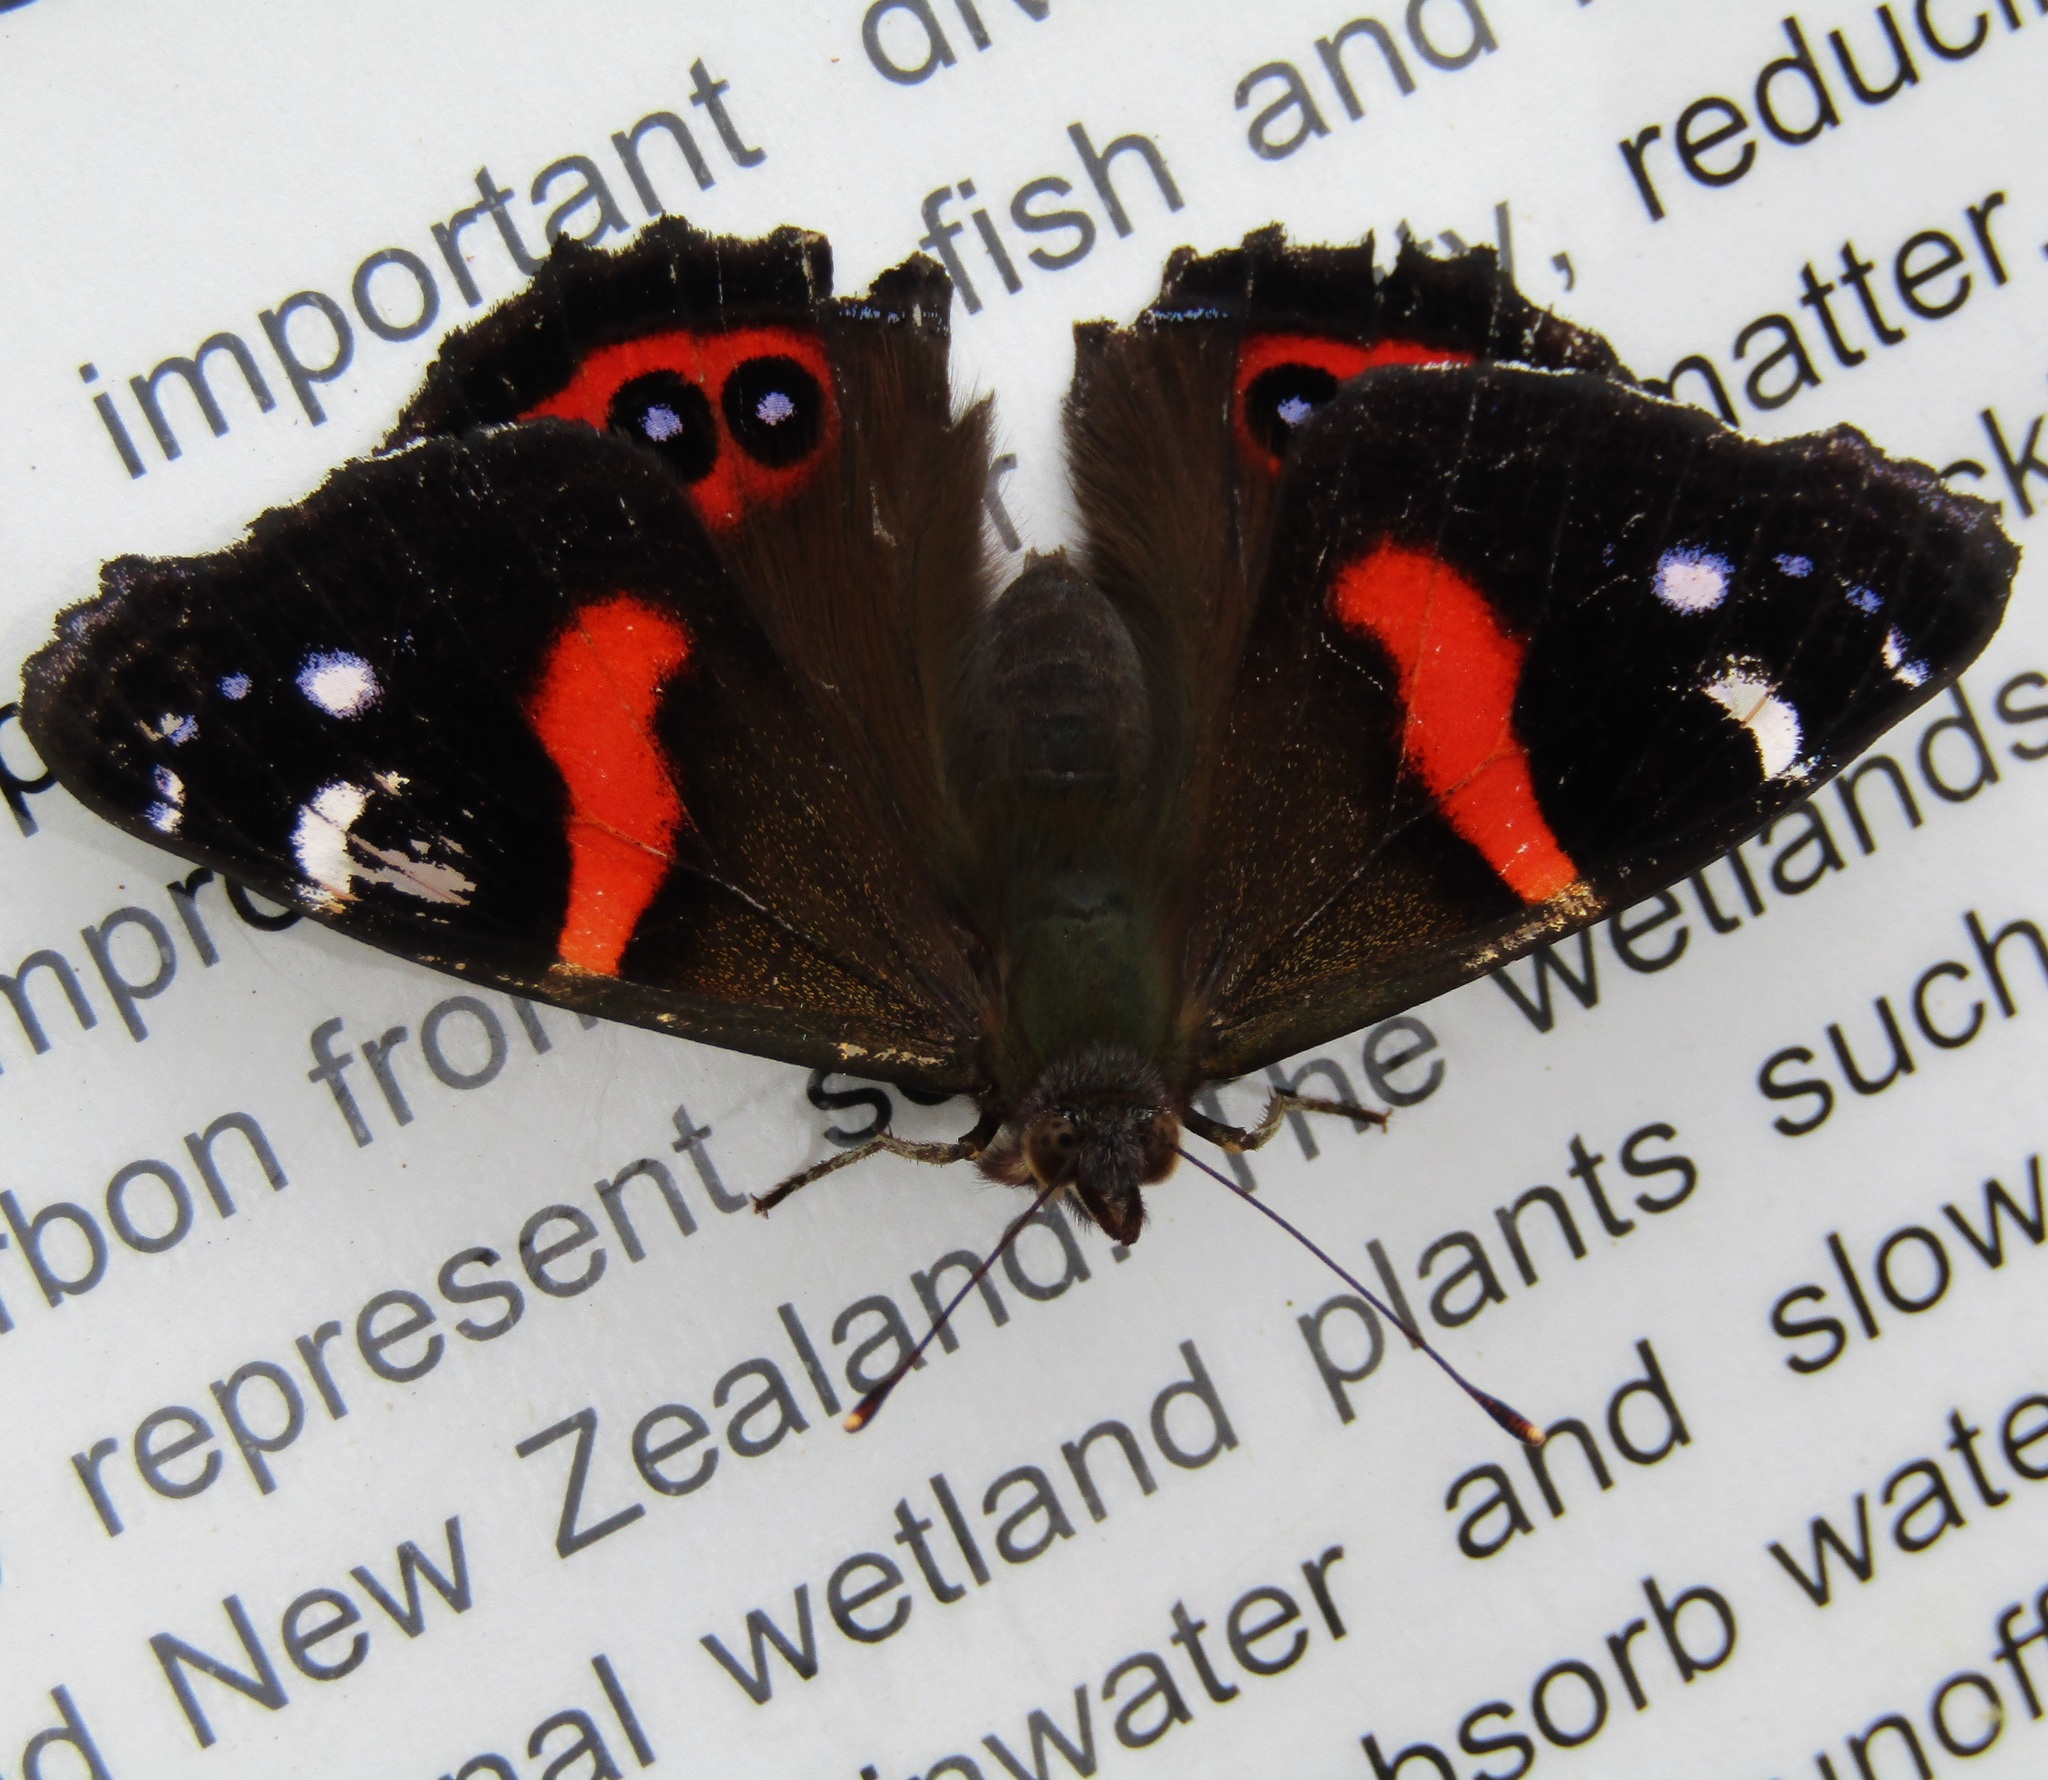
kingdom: Animalia
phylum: Arthropoda
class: Insecta
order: Lepidoptera
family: Nymphalidae
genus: Vanessa
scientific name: Vanessa gonerilla
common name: New zealand red admiral
